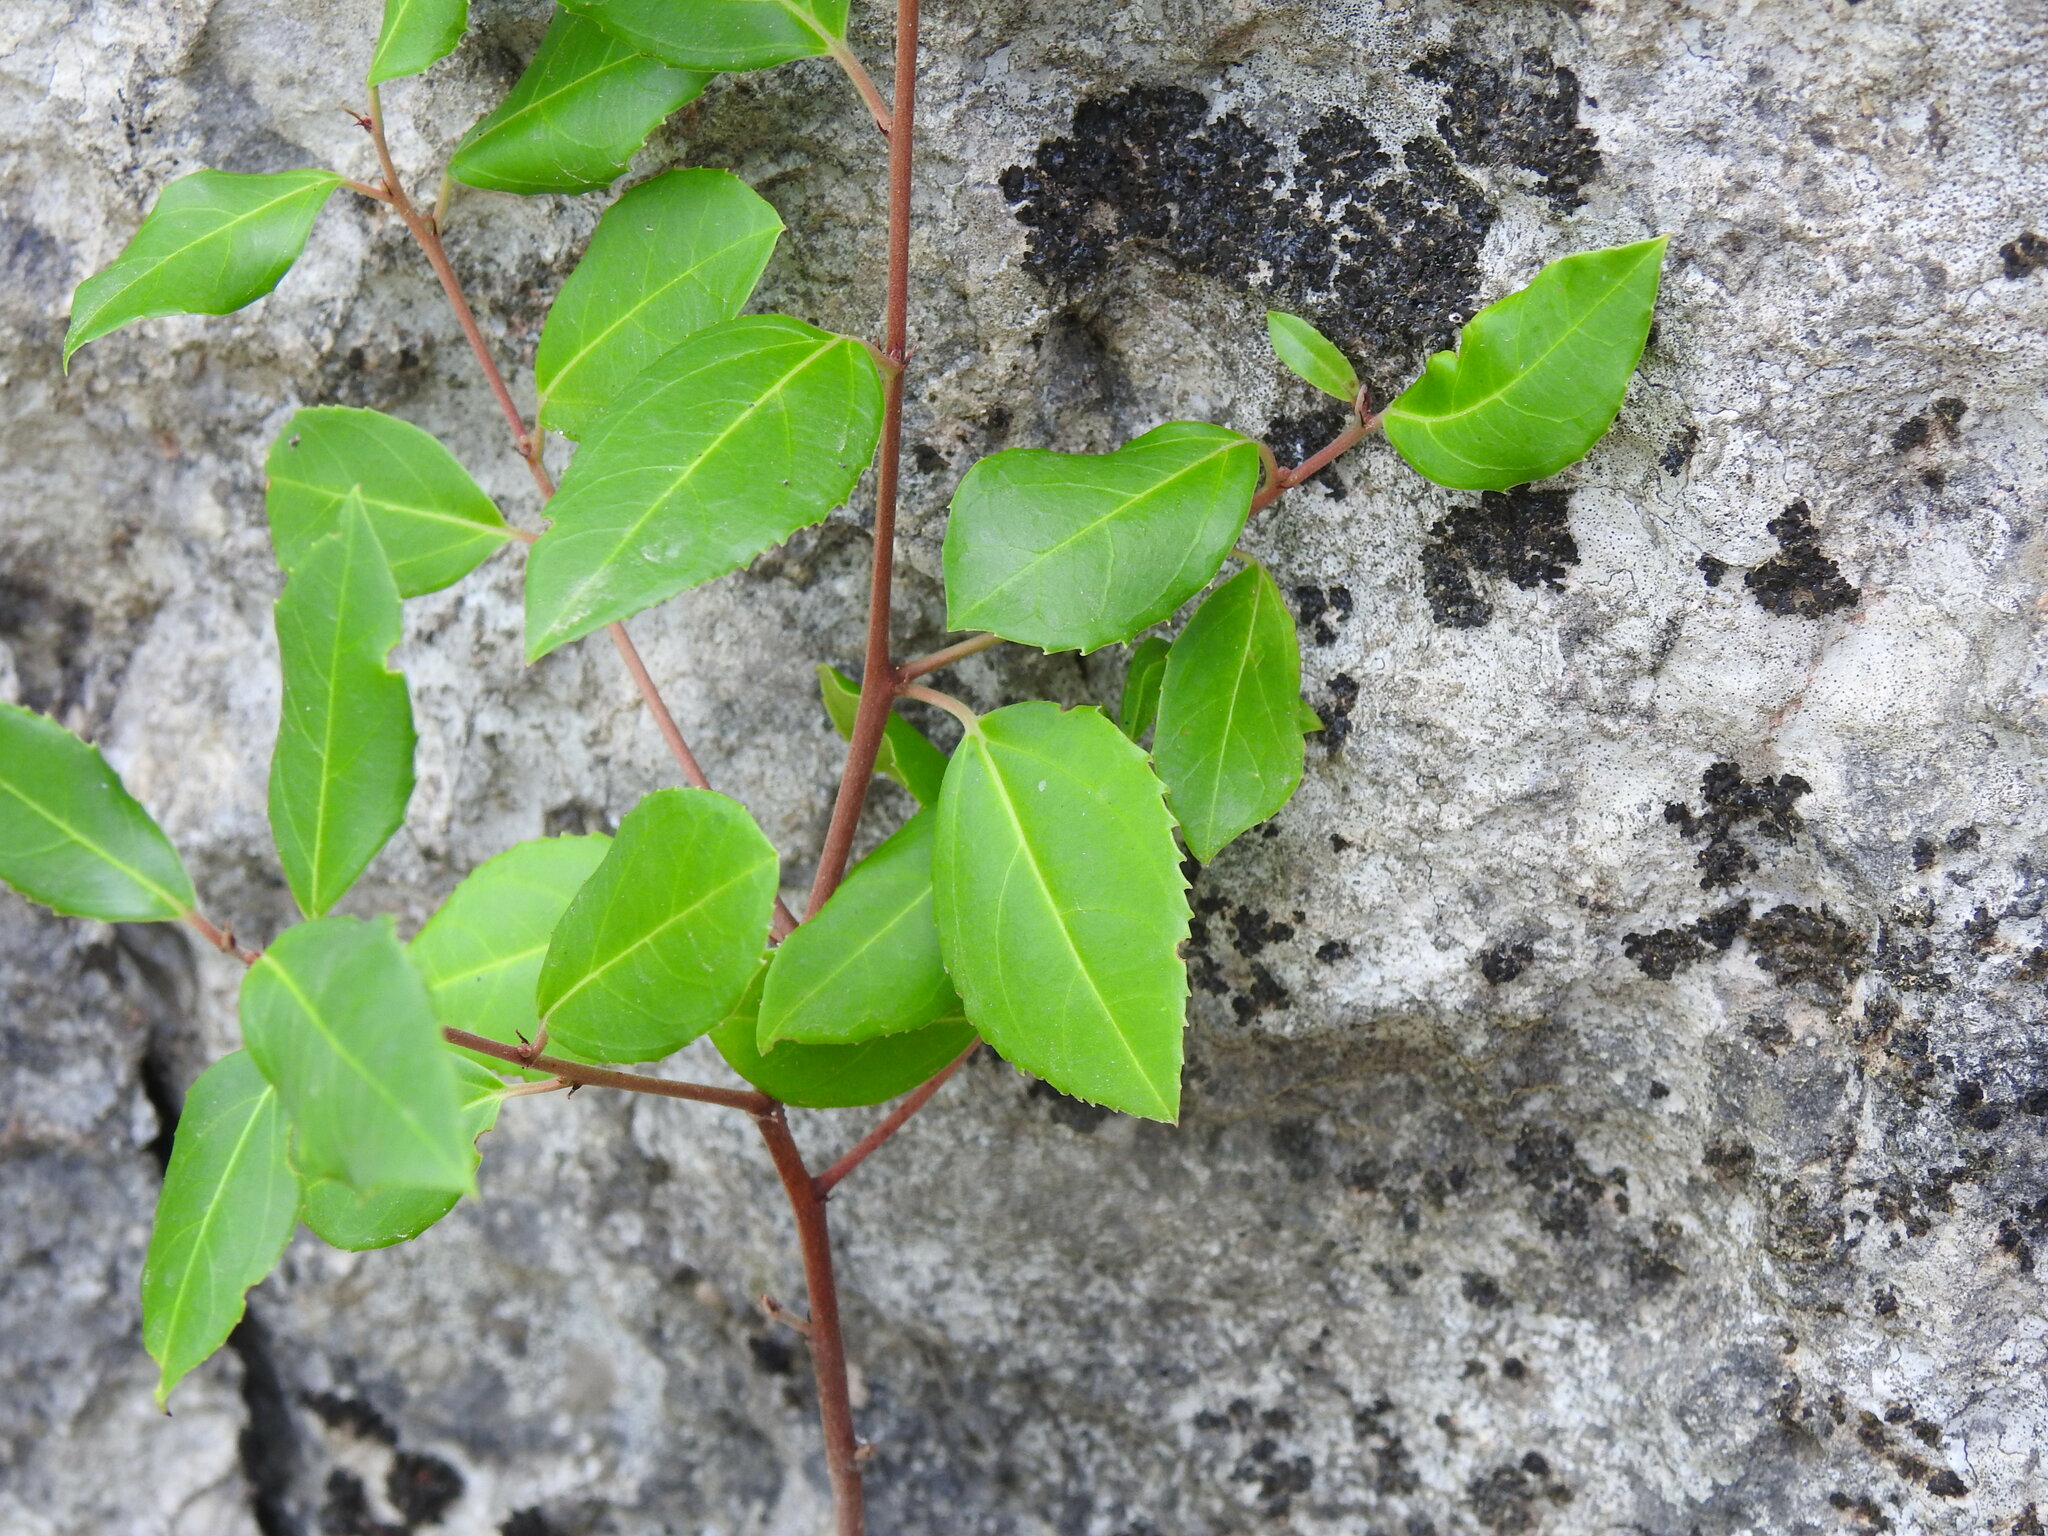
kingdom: Plantae
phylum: Tracheophyta
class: Magnoliopsida
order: Rosales
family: Rhamnaceae
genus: Rhamnus
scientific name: Rhamnus alaternus
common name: Mediterranean buckthorn
